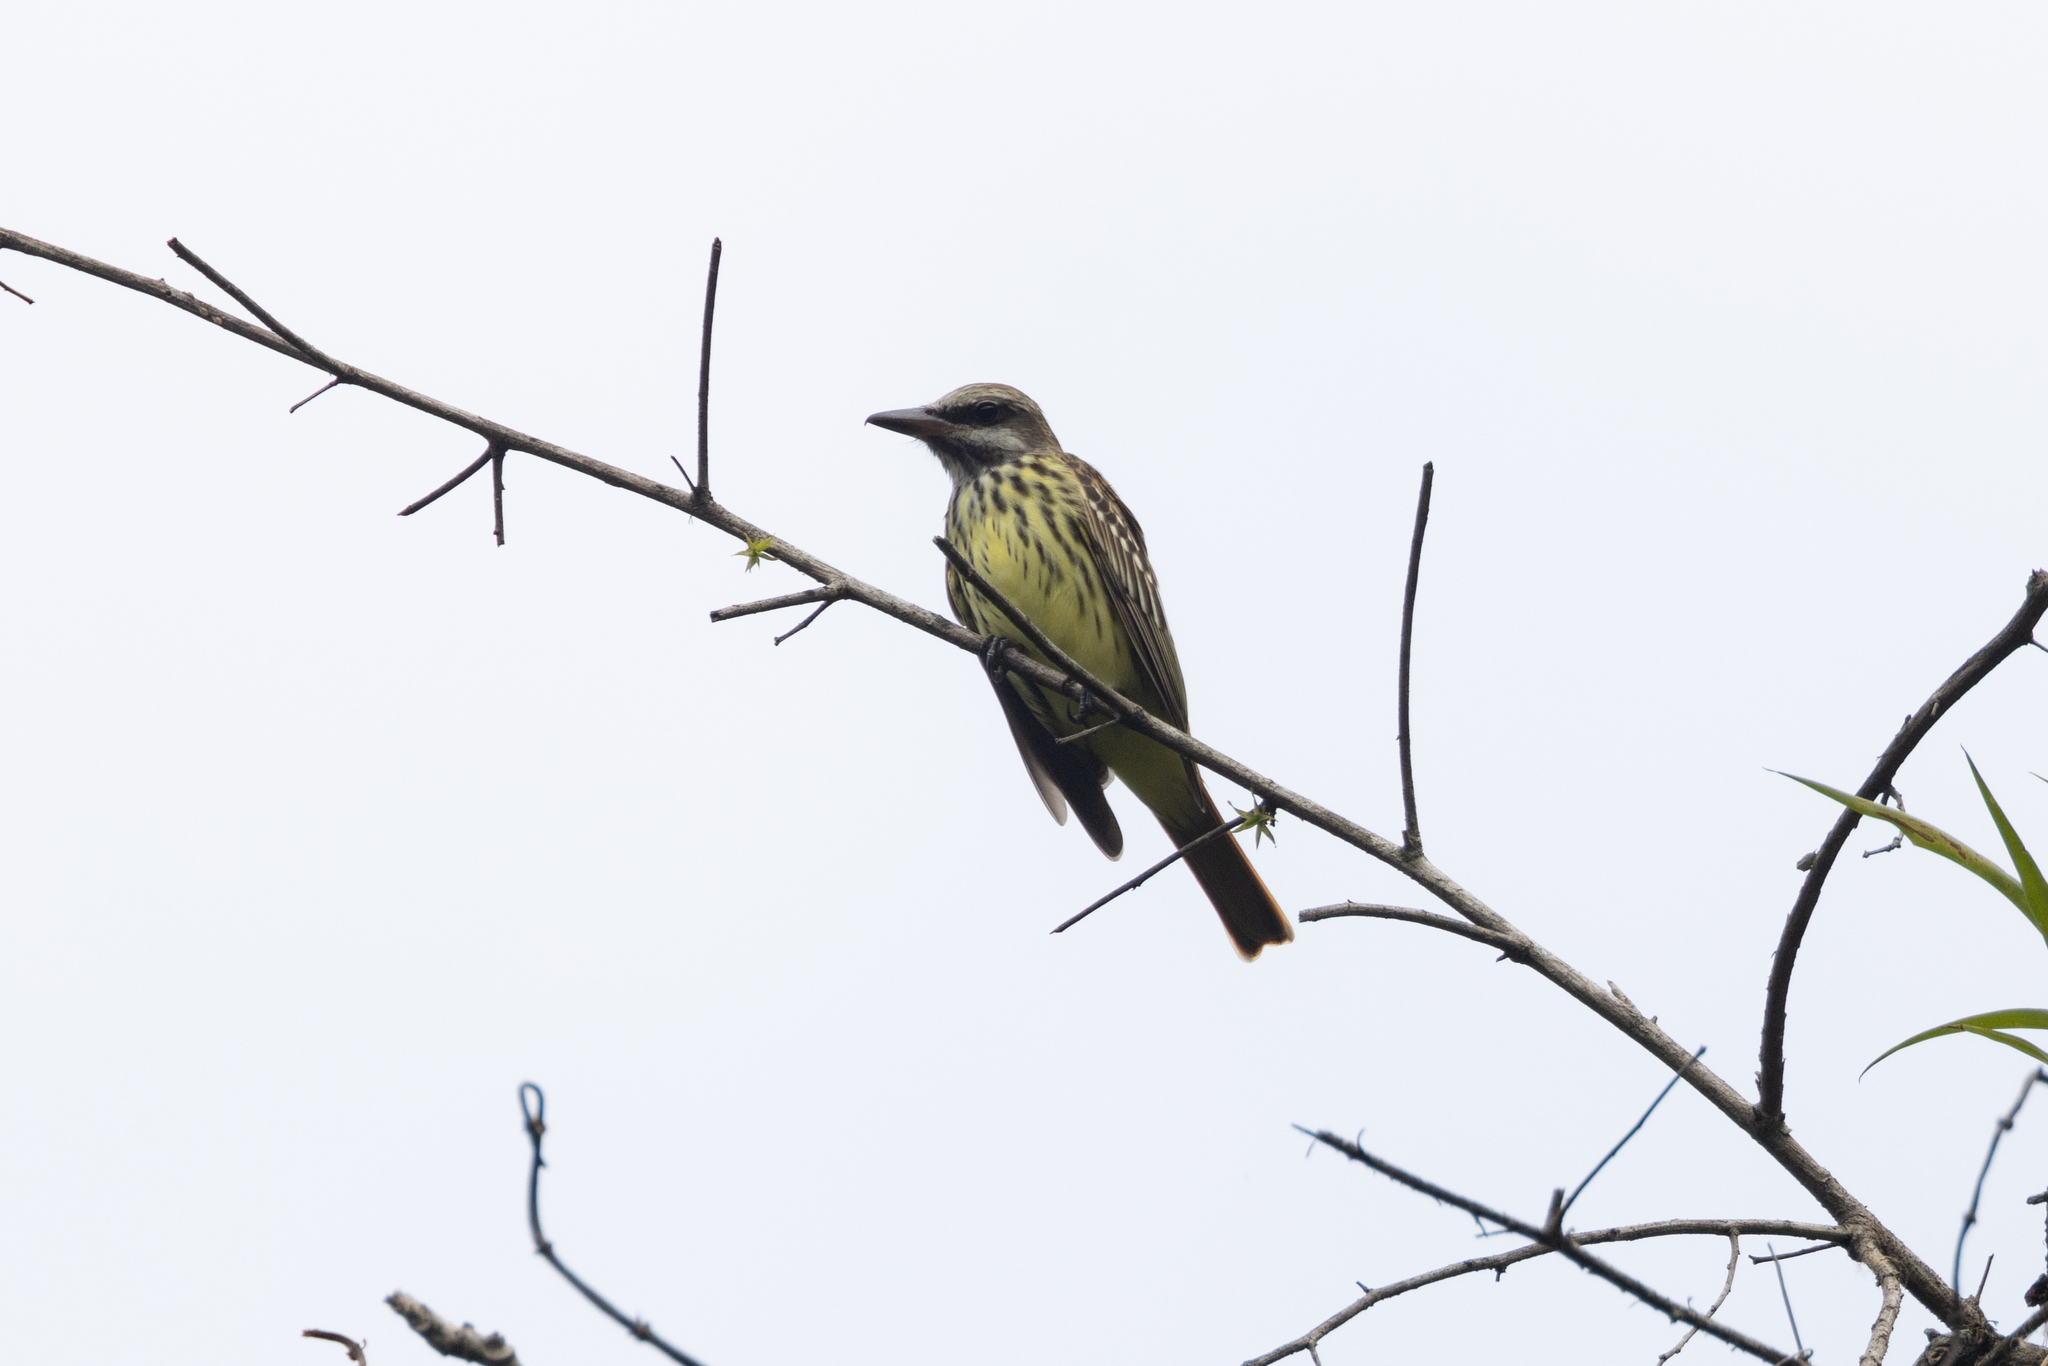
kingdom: Animalia
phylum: Chordata
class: Aves
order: Passeriformes
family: Tyrannidae
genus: Myiodynastes
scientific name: Myiodynastes luteiventris
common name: Sulphur-bellied flycatcher
